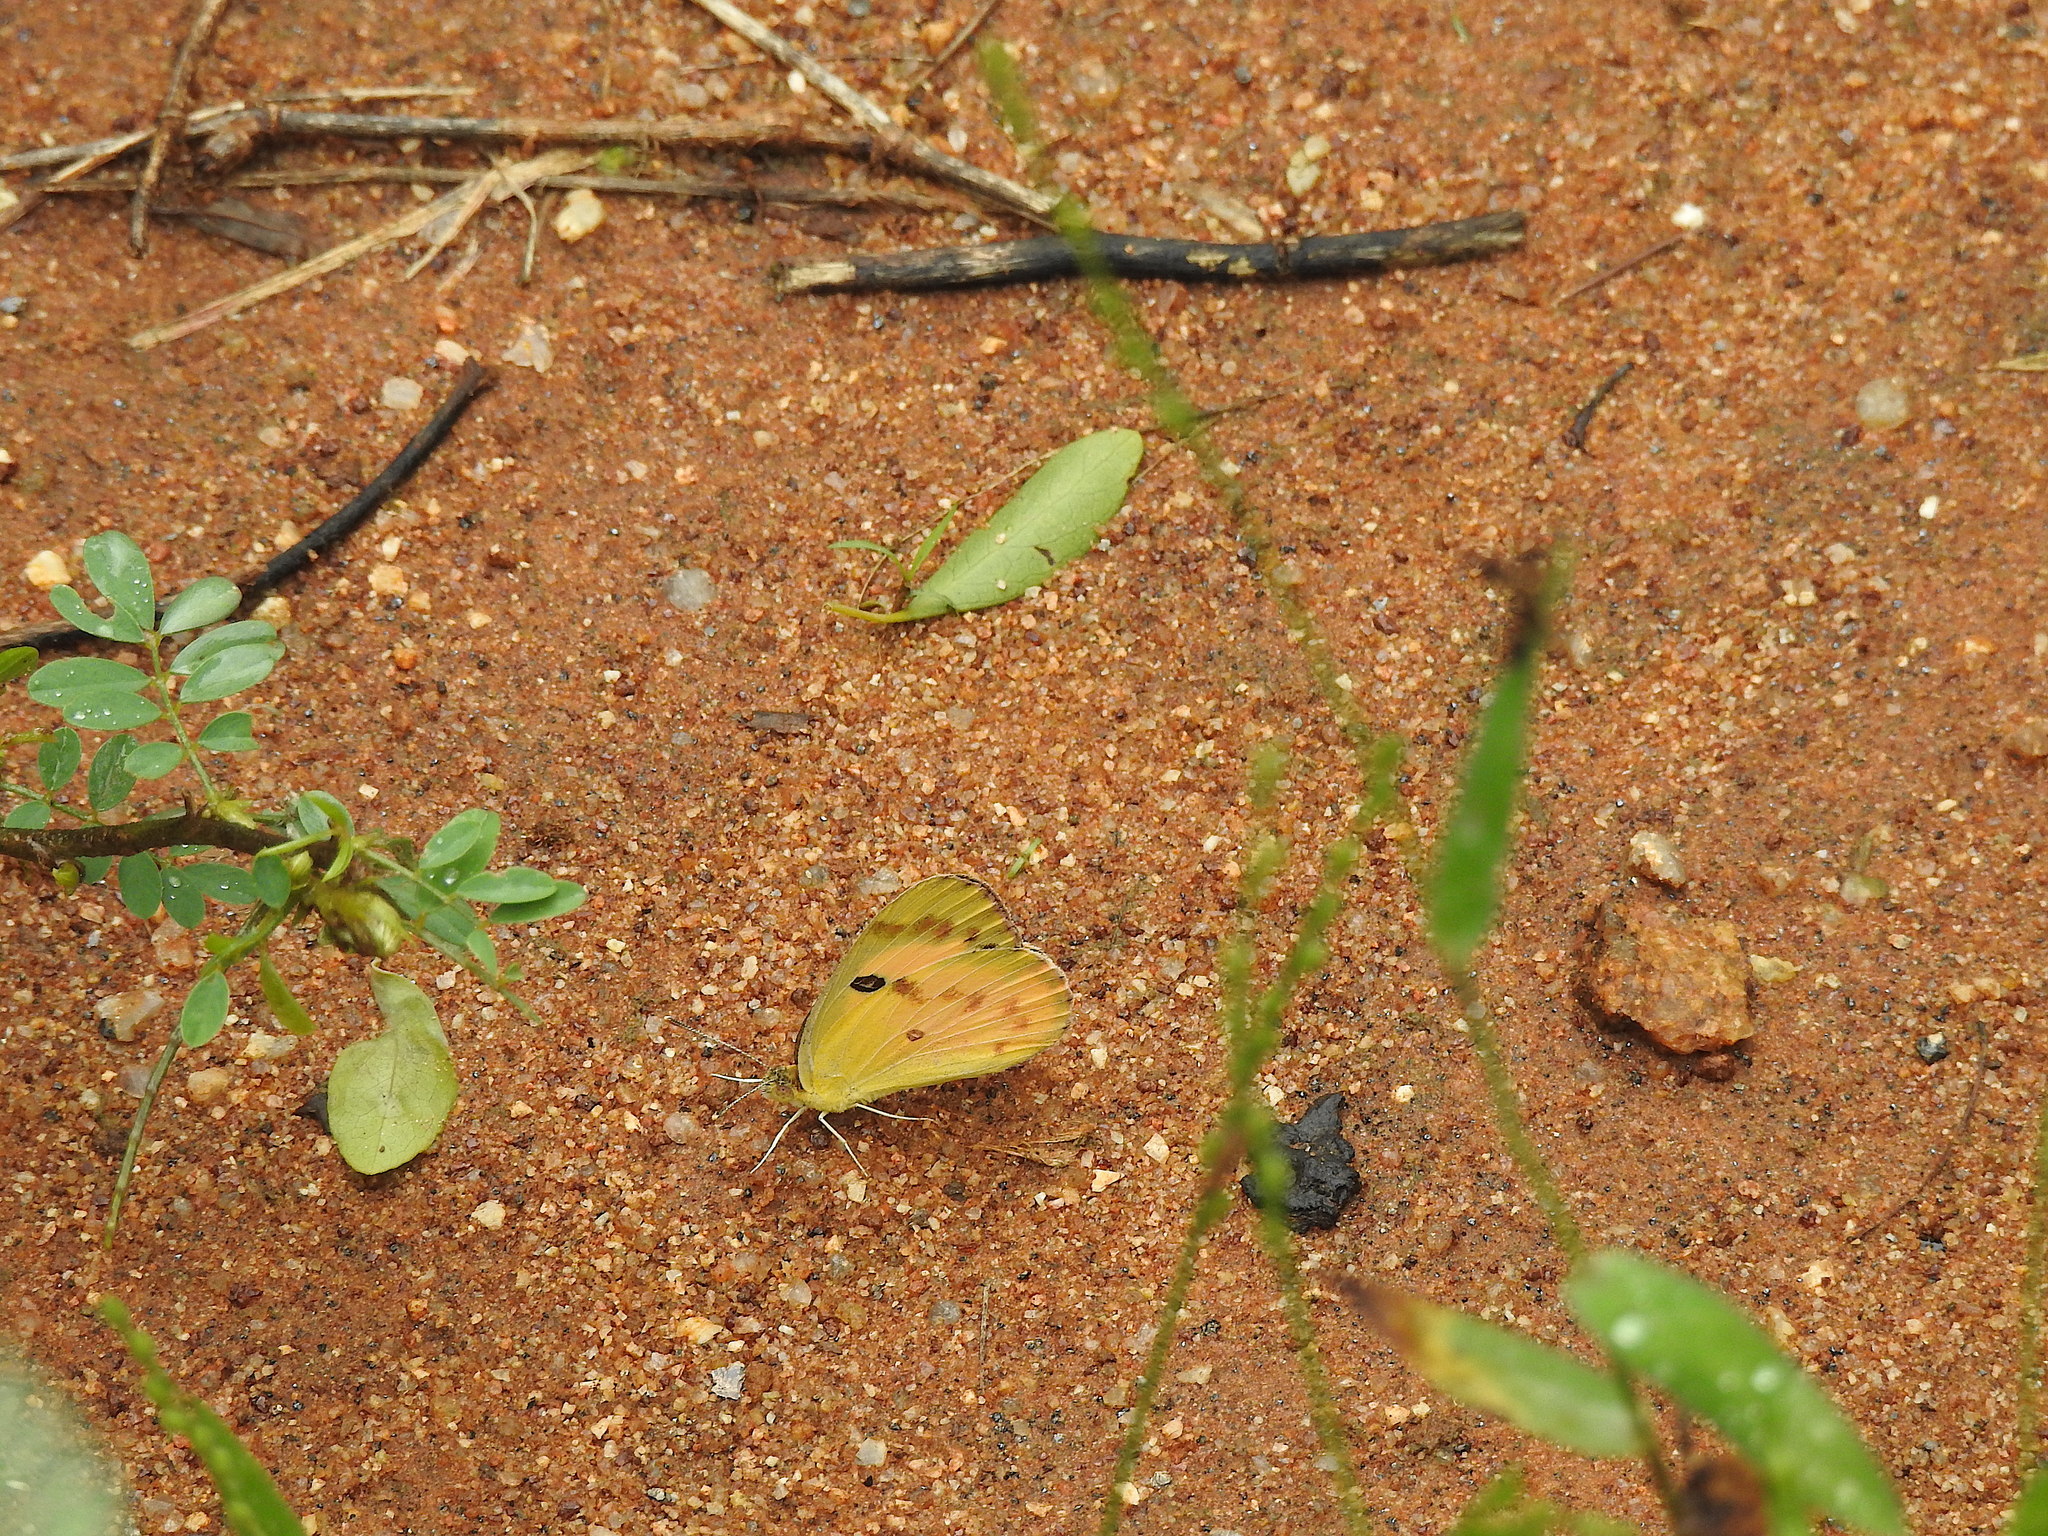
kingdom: Animalia
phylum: Arthropoda
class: Insecta
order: Lepidoptera
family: Pieridae
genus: Colotis
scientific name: Colotis fausta
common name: Large salmon arab
